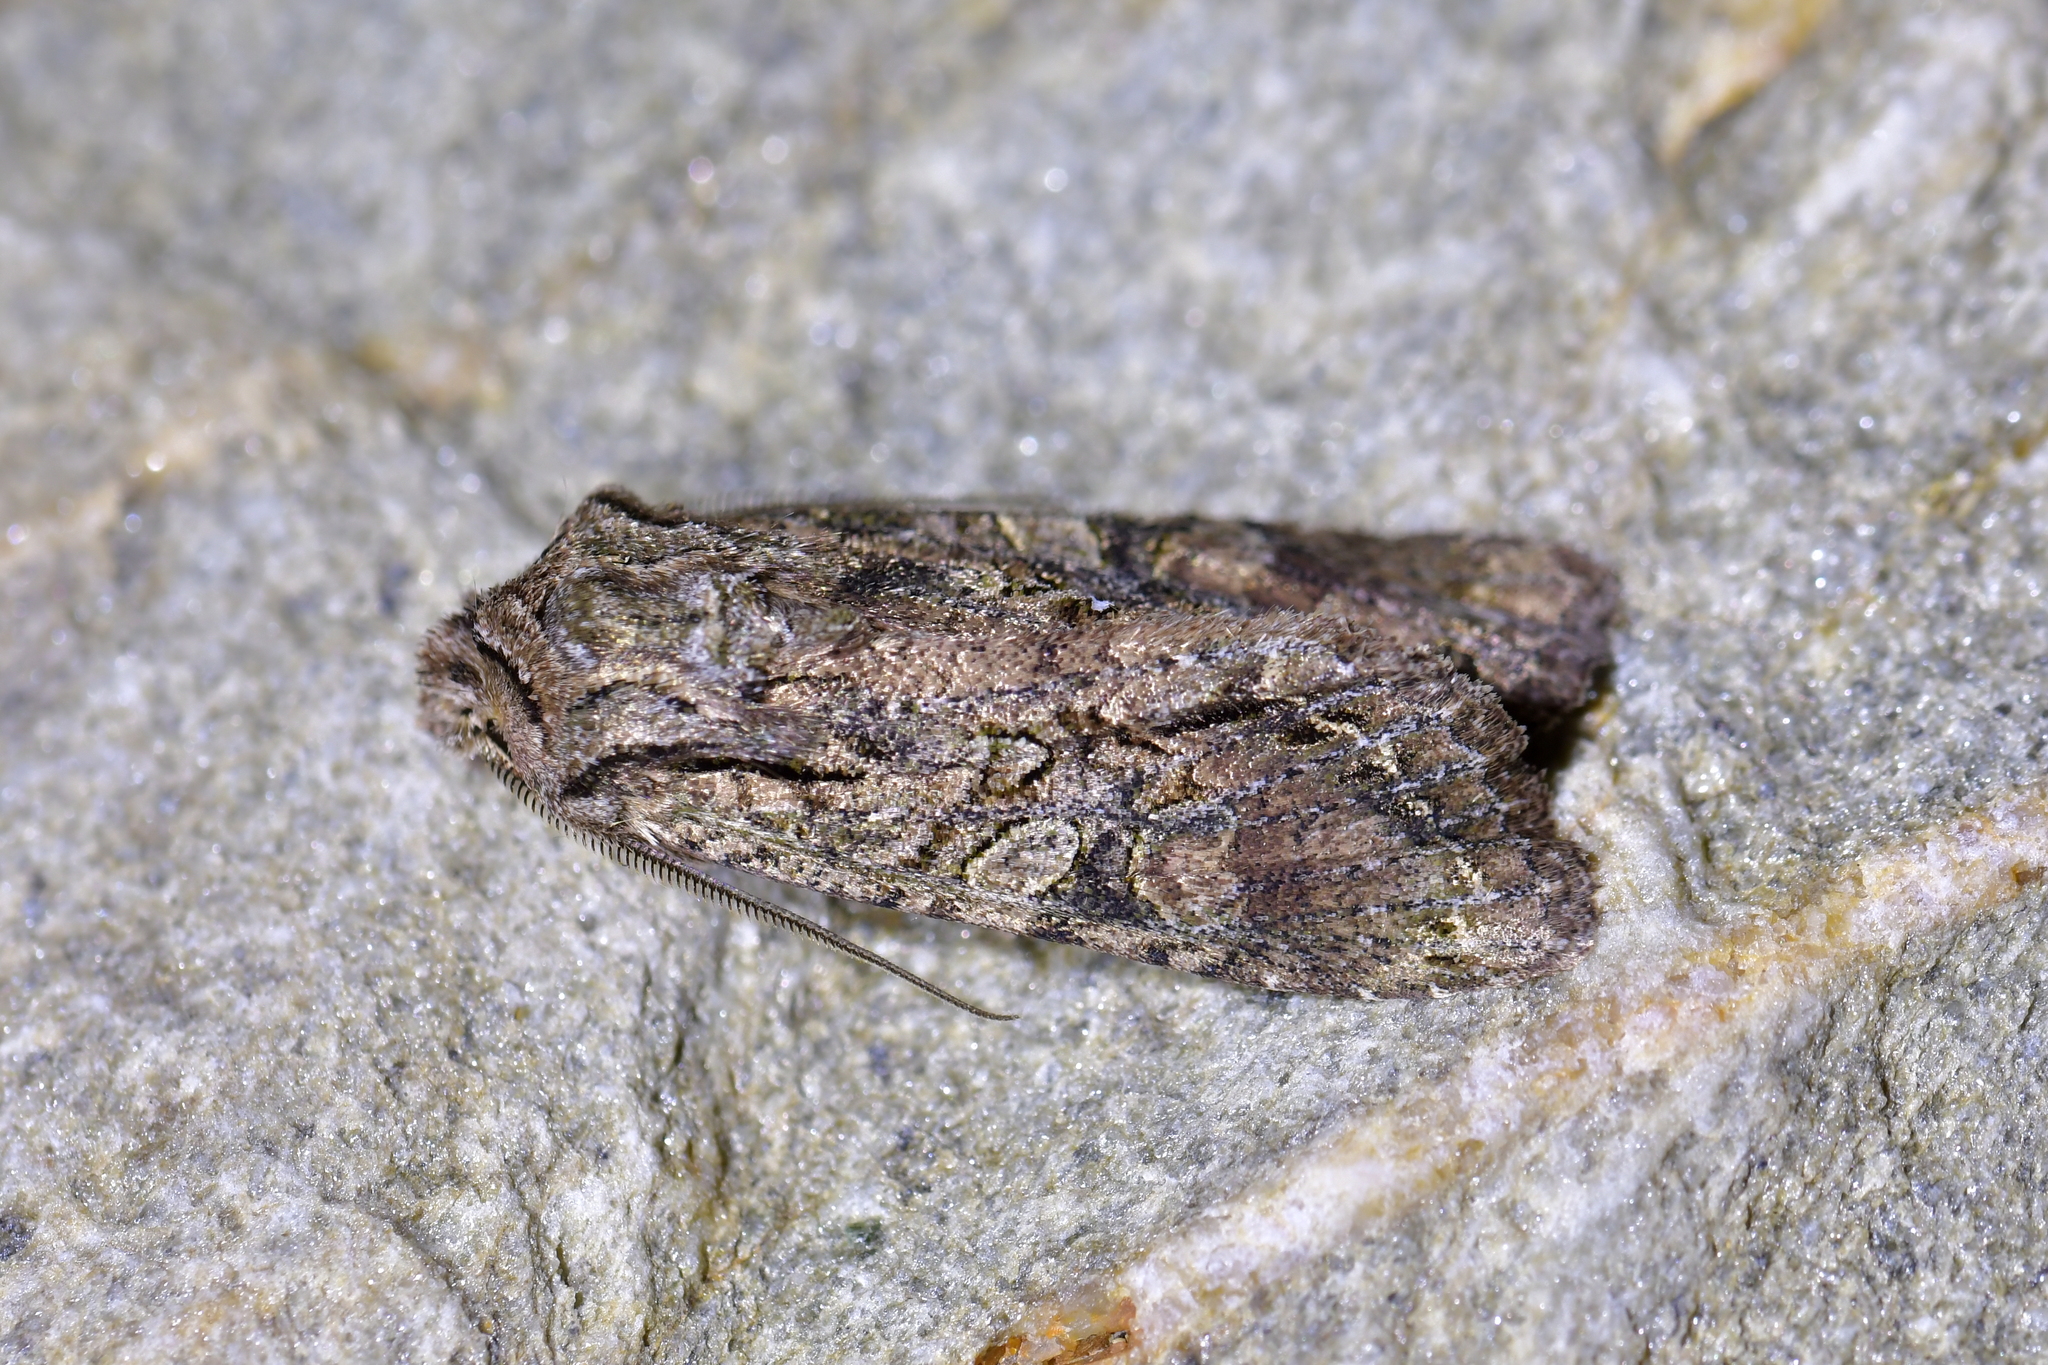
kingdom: Animalia
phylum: Arthropoda
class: Insecta
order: Lepidoptera
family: Noctuidae
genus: Ichneutica
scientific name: Ichneutica mutans
